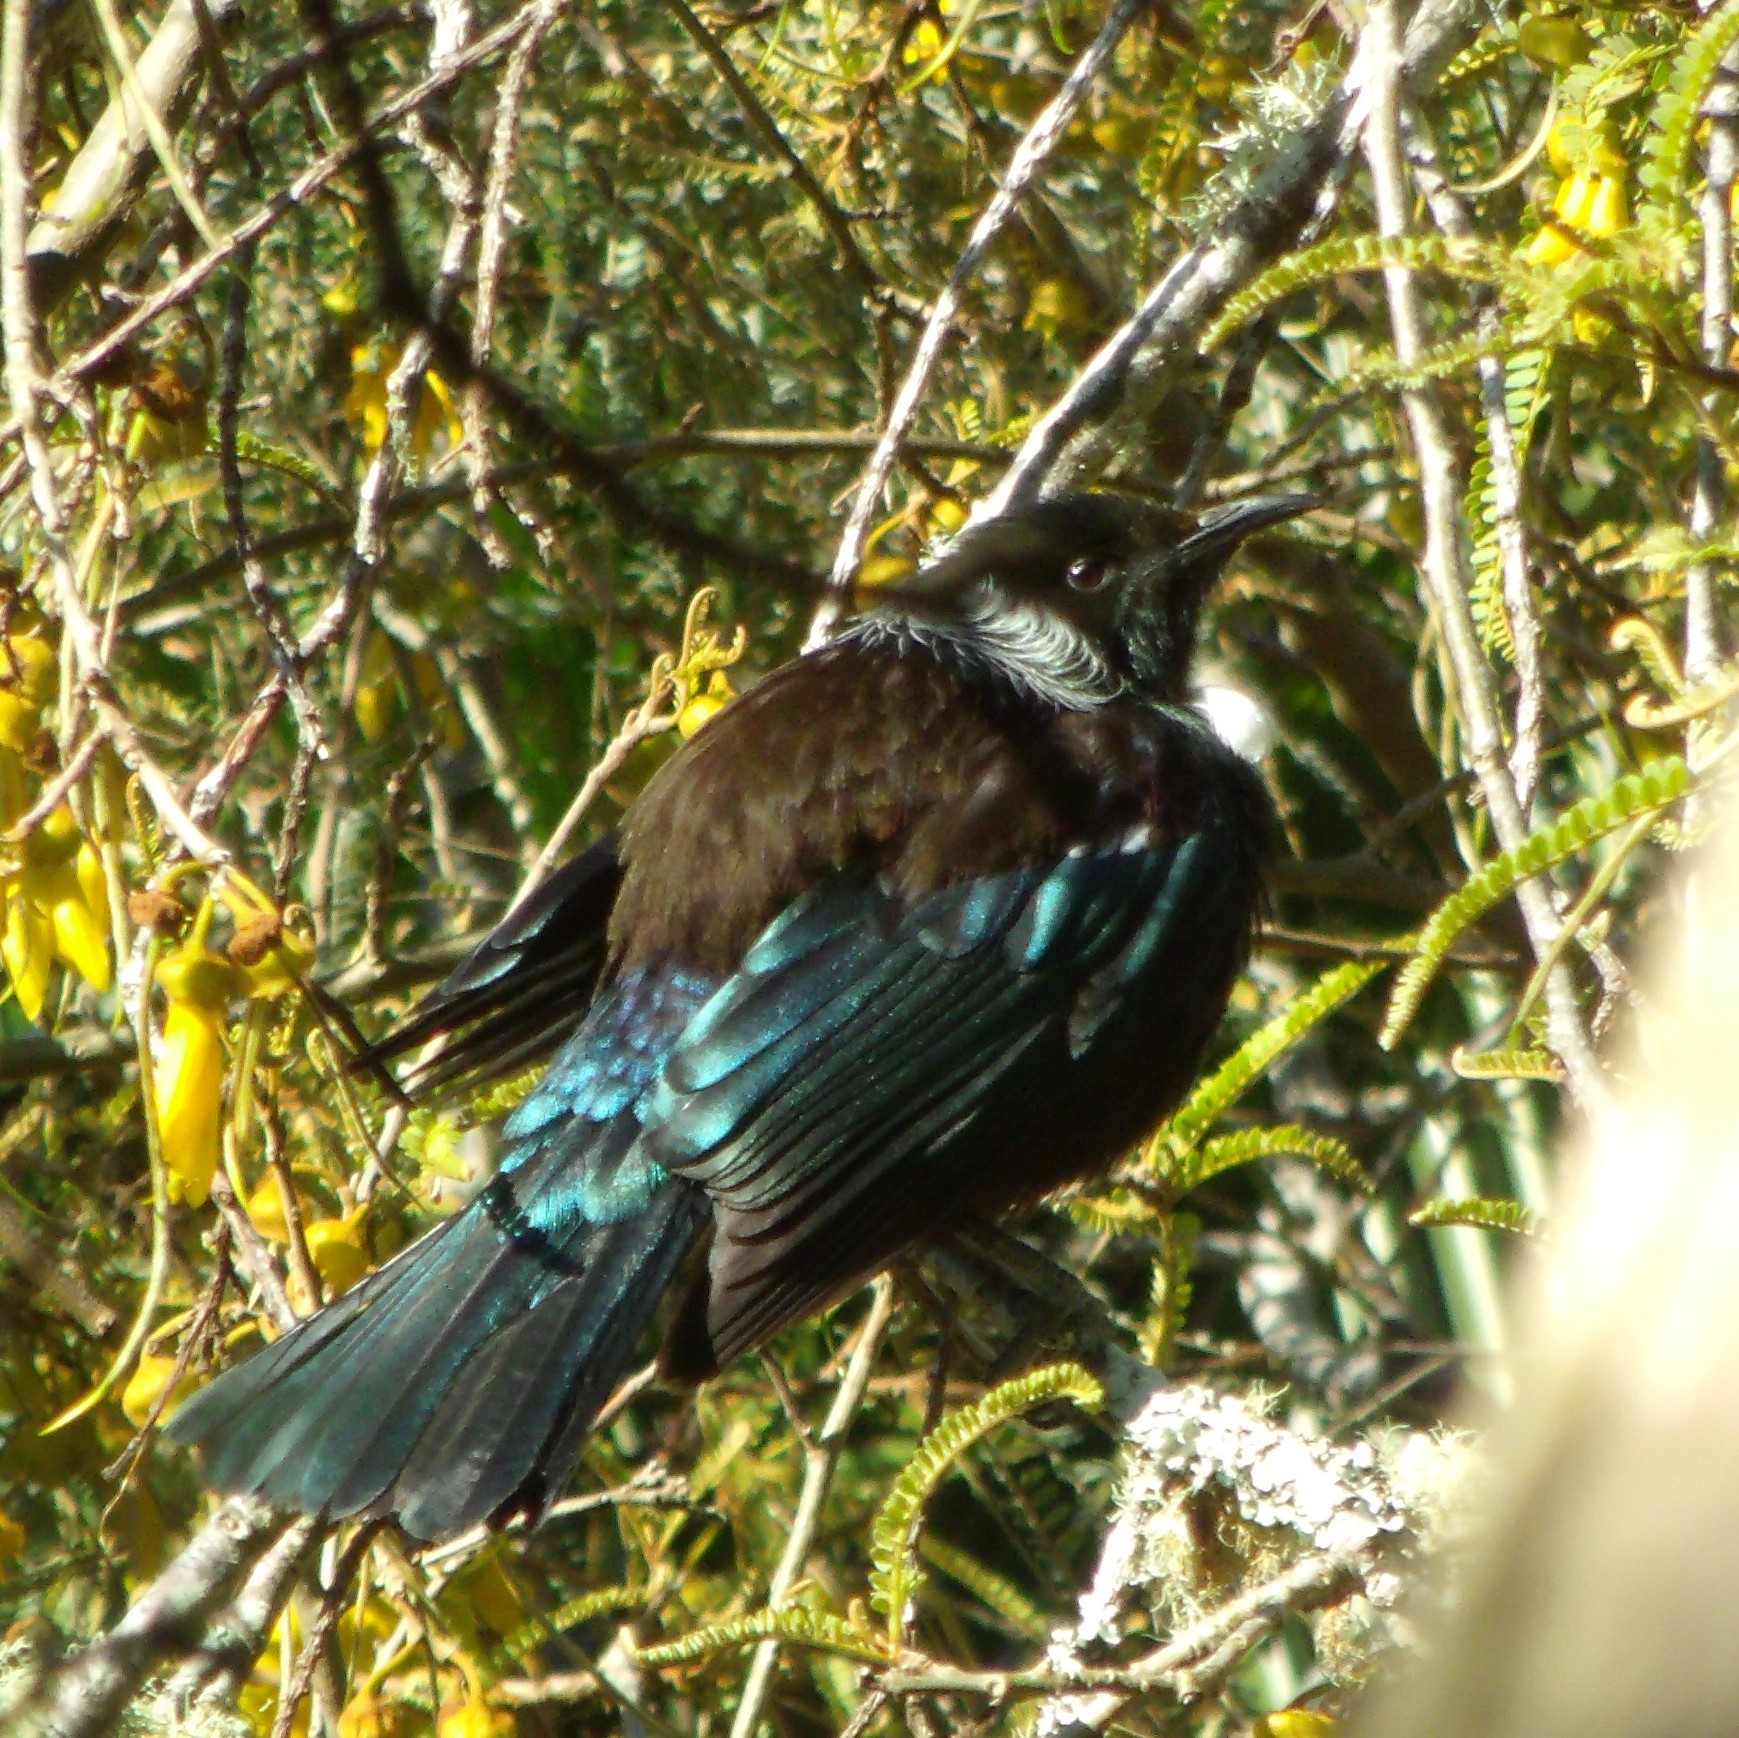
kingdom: Animalia
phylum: Chordata
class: Aves
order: Passeriformes
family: Meliphagidae
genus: Prosthemadera
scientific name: Prosthemadera novaeseelandiae
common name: Tui
